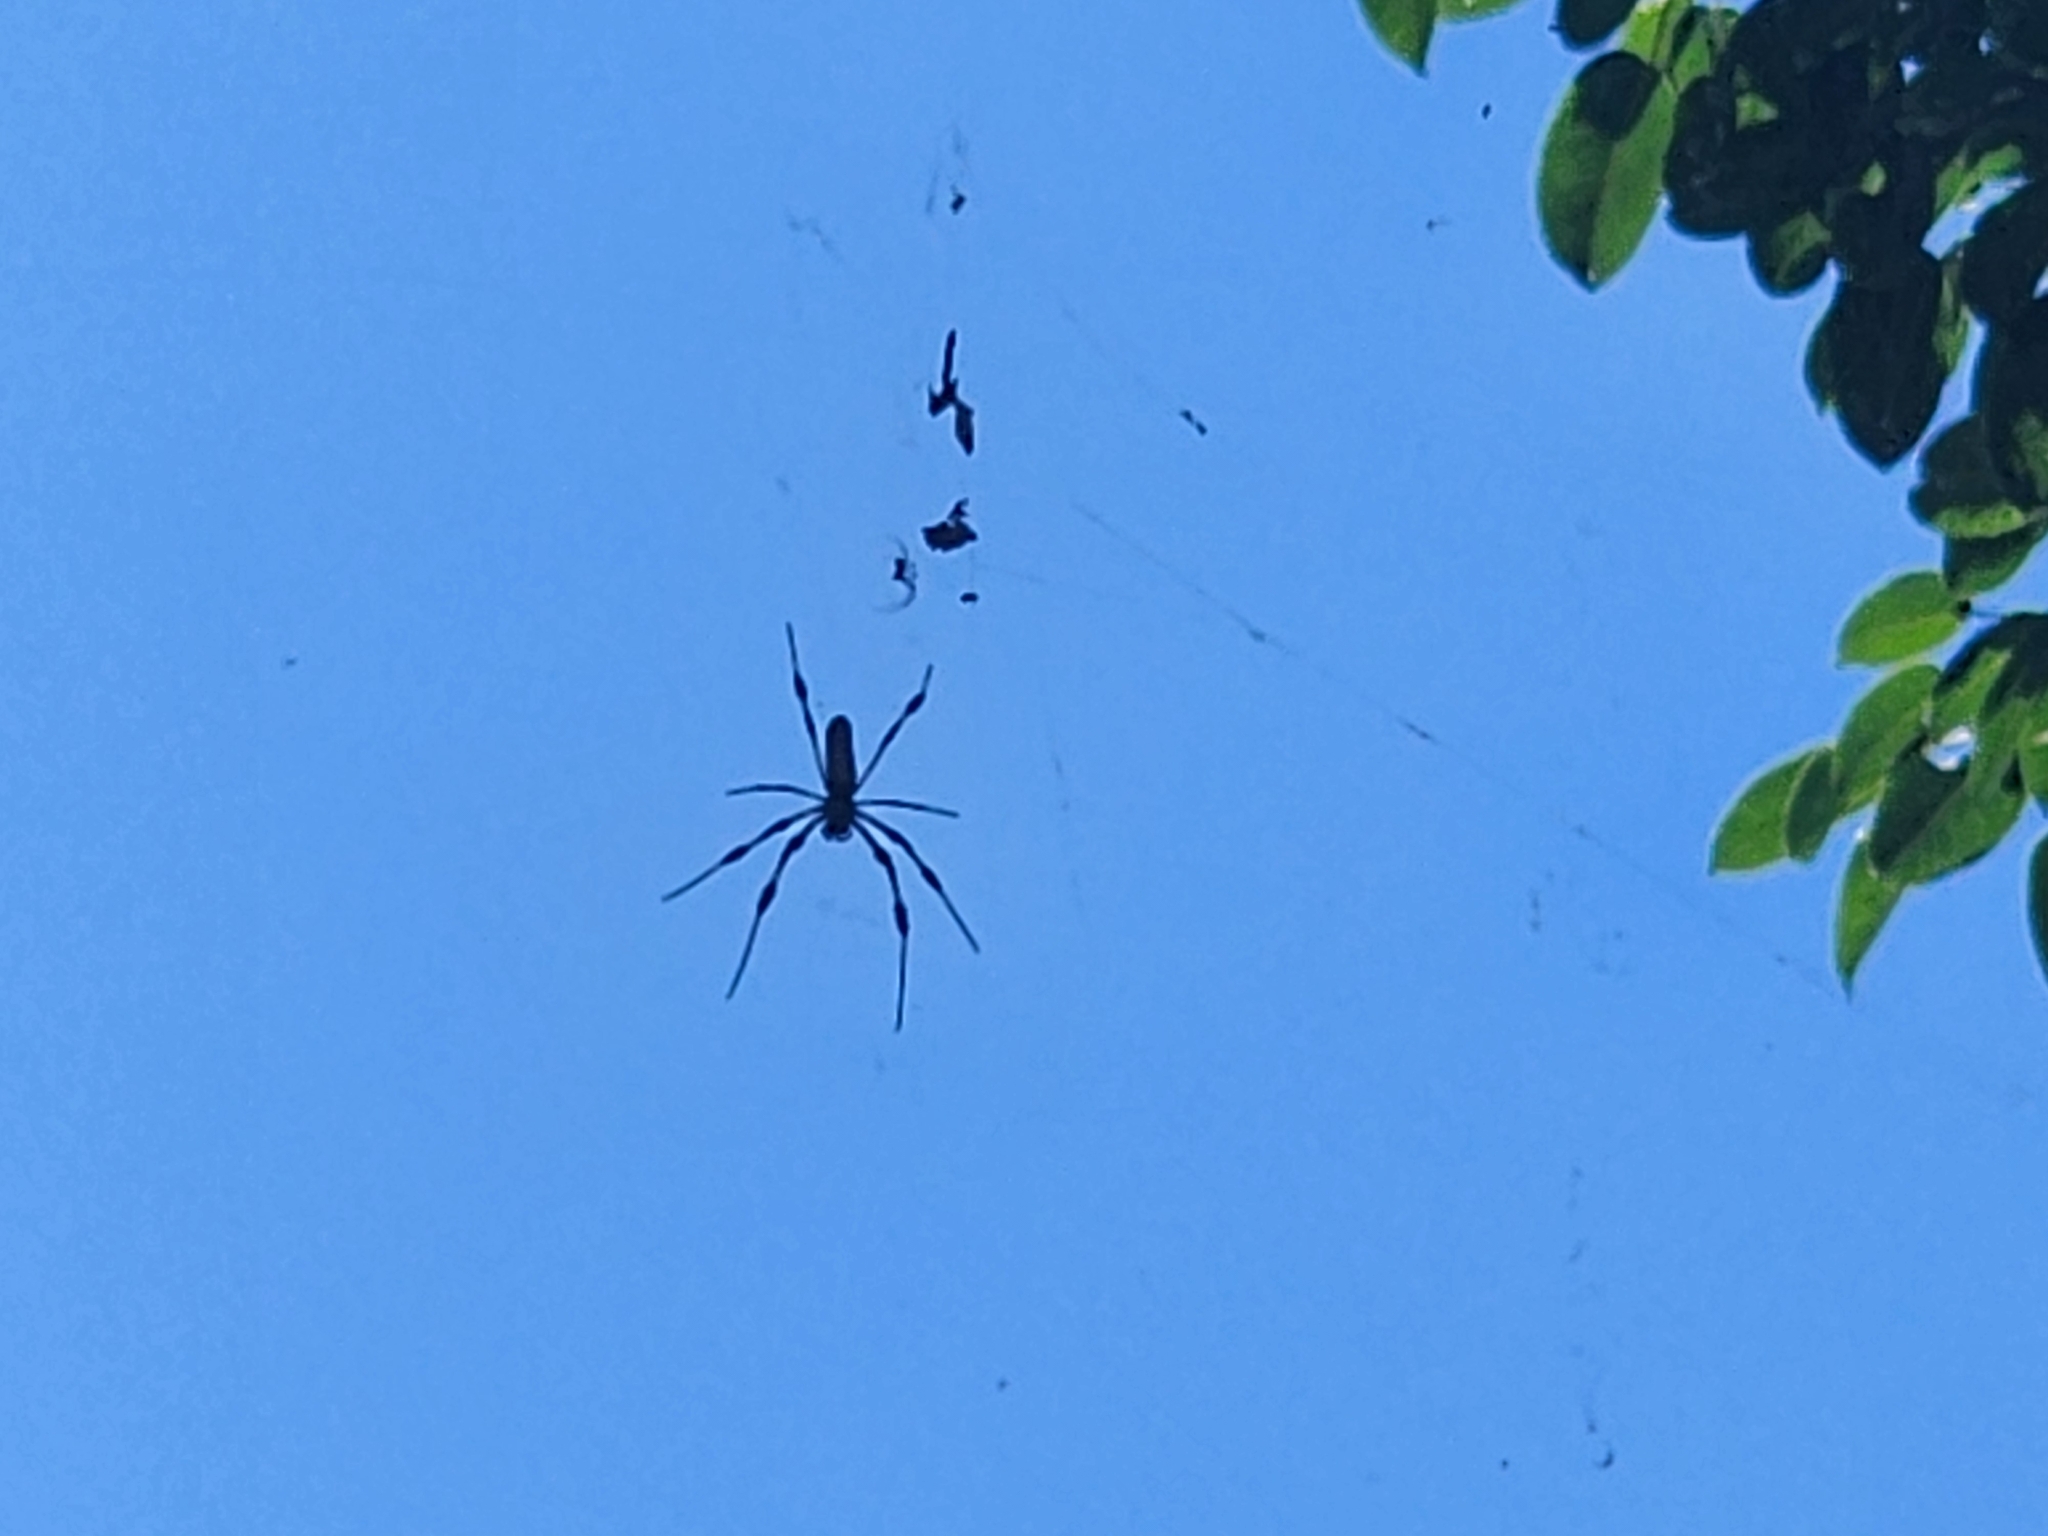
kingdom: Animalia
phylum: Arthropoda
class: Arachnida
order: Araneae
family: Araneidae
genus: Trichonephila
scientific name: Trichonephila clavipes
